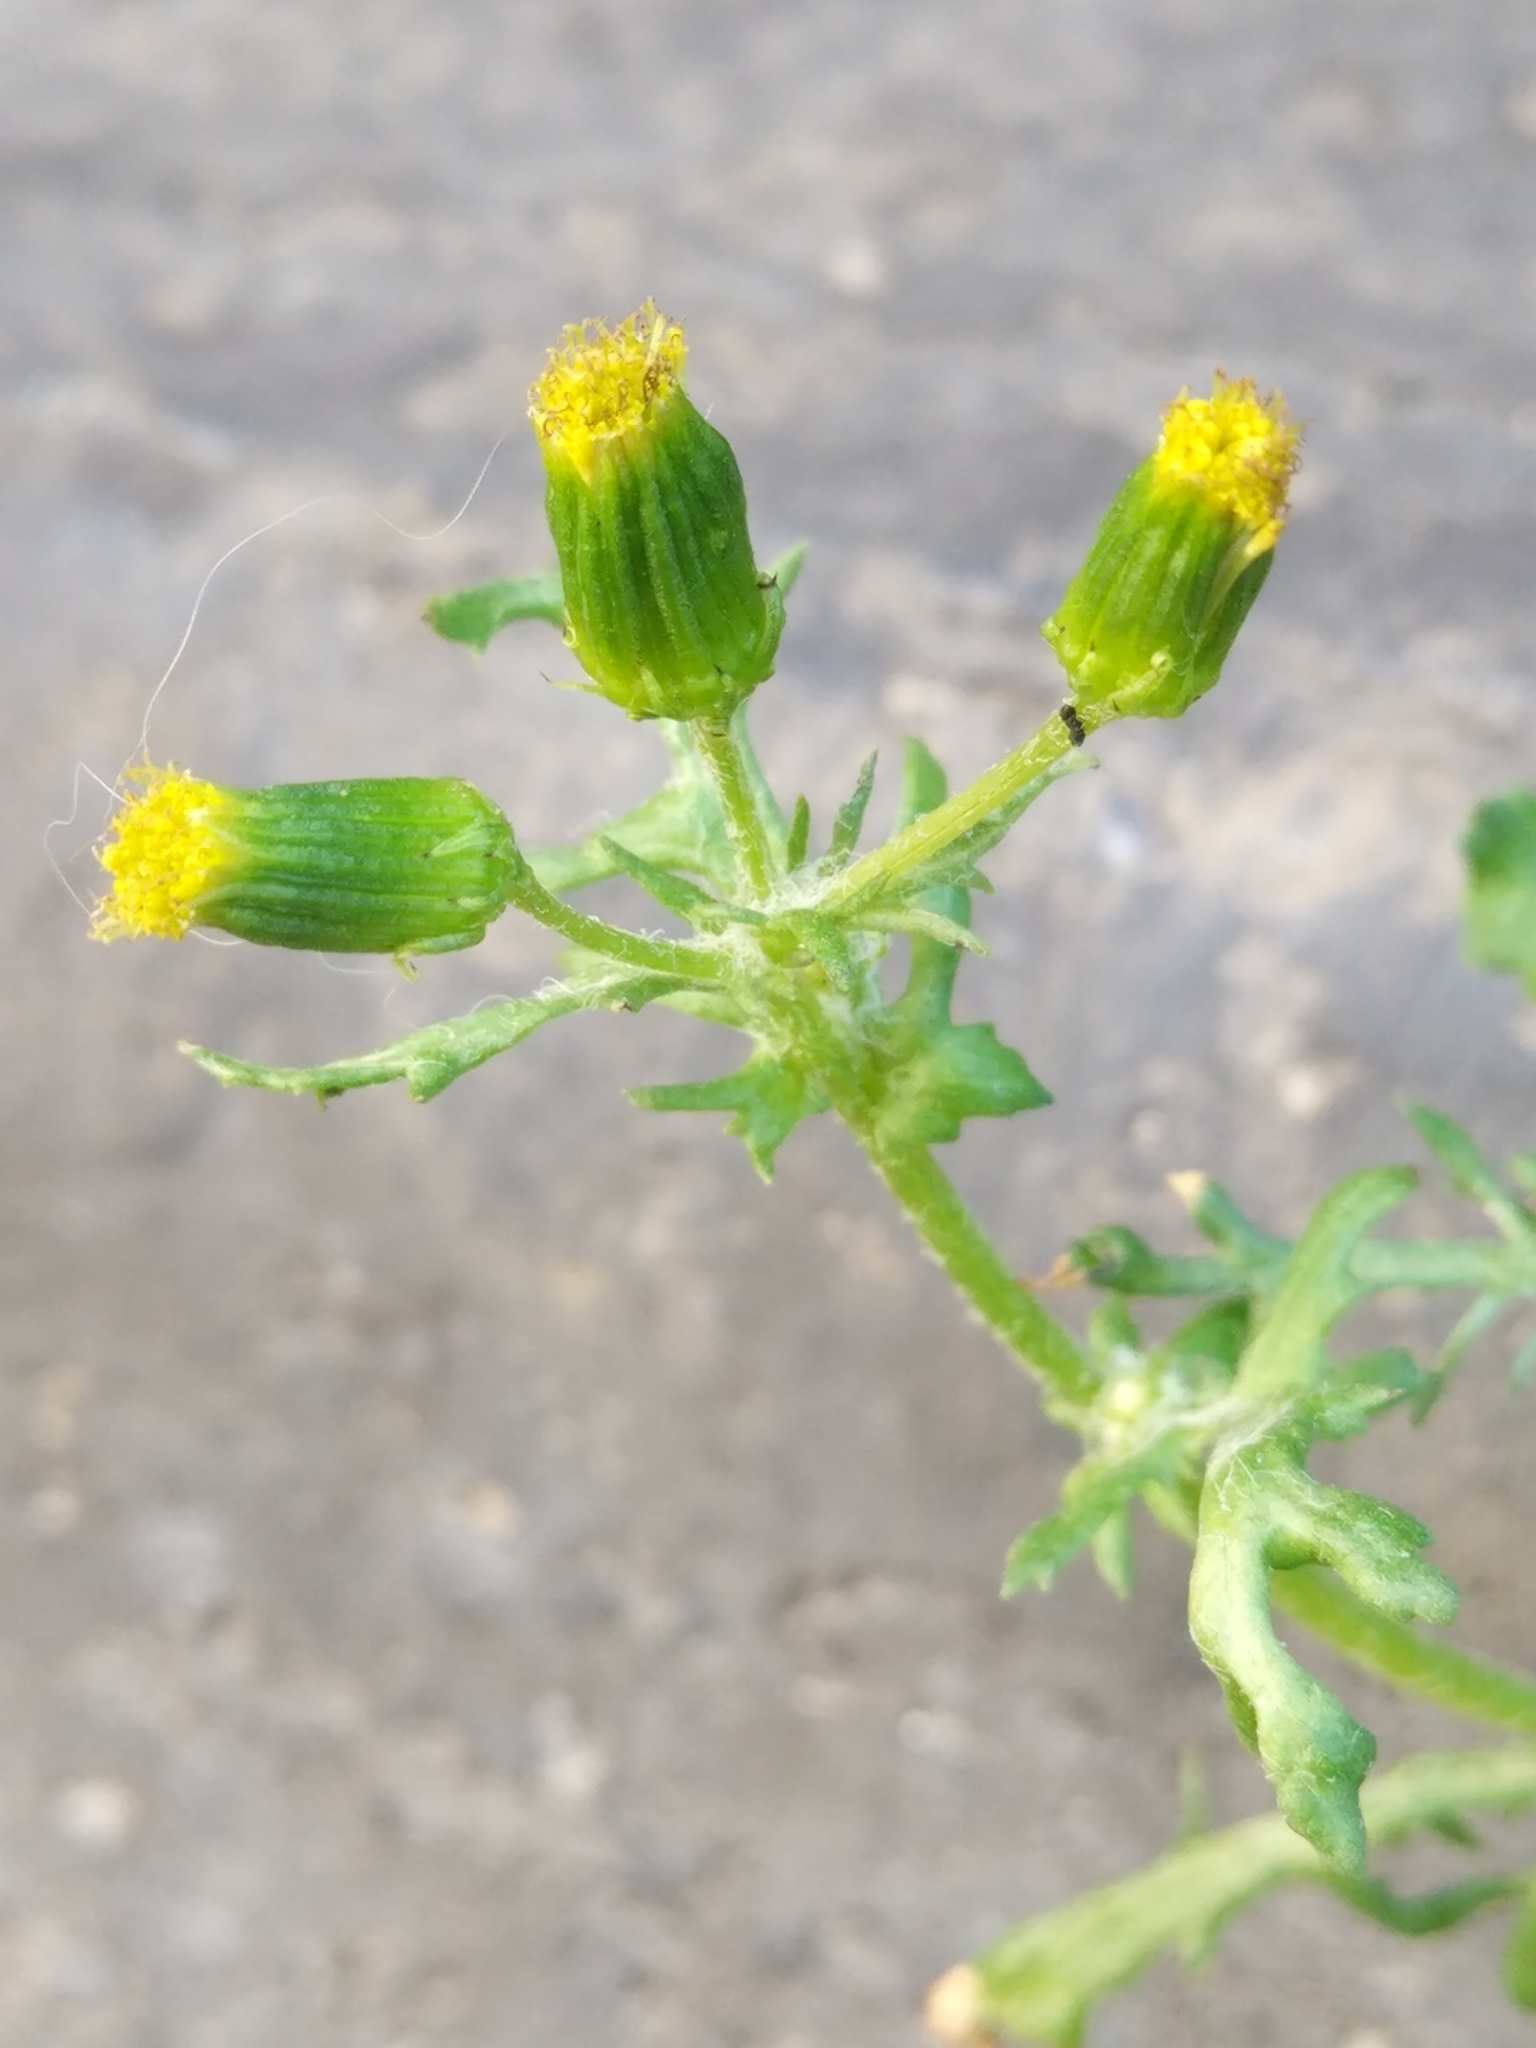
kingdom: Plantae
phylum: Tracheophyta
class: Magnoliopsida
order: Asterales
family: Asteraceae
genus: Senecio
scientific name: Senecio vulgaris
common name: Old-man-in-the-spring
